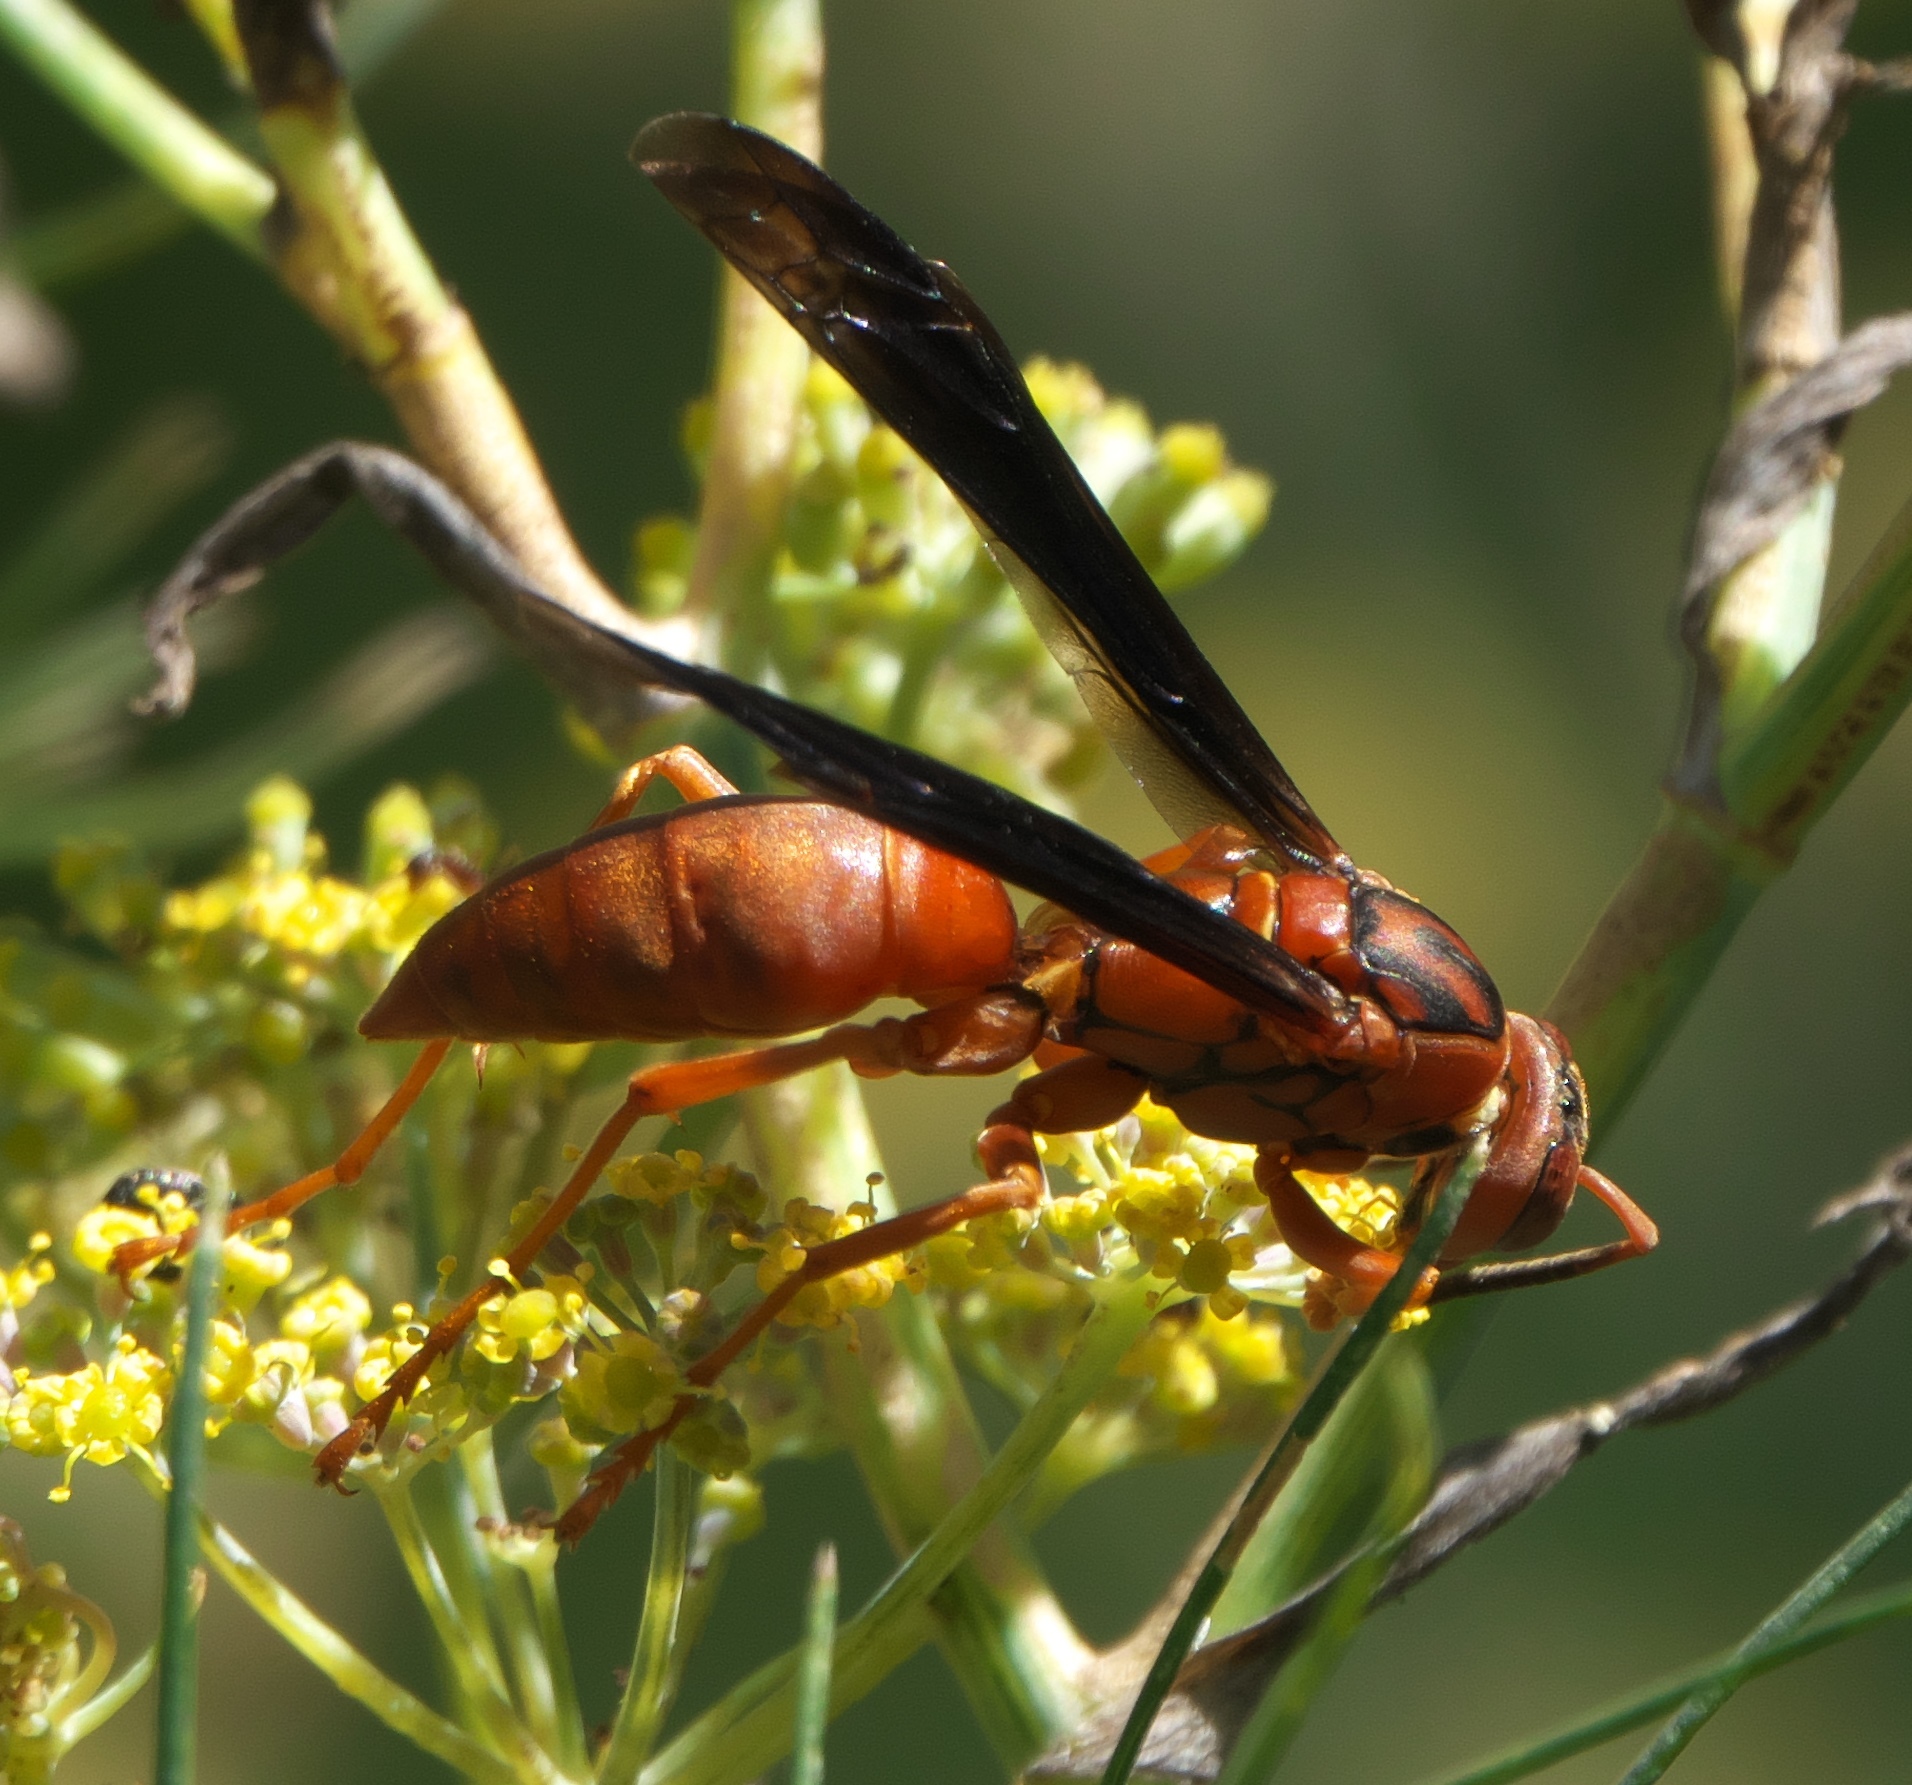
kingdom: Animalia
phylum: Arthropoda
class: Insecta
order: Hymenoptera
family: Eumenidae
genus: Polistes
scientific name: Polistes carolina
